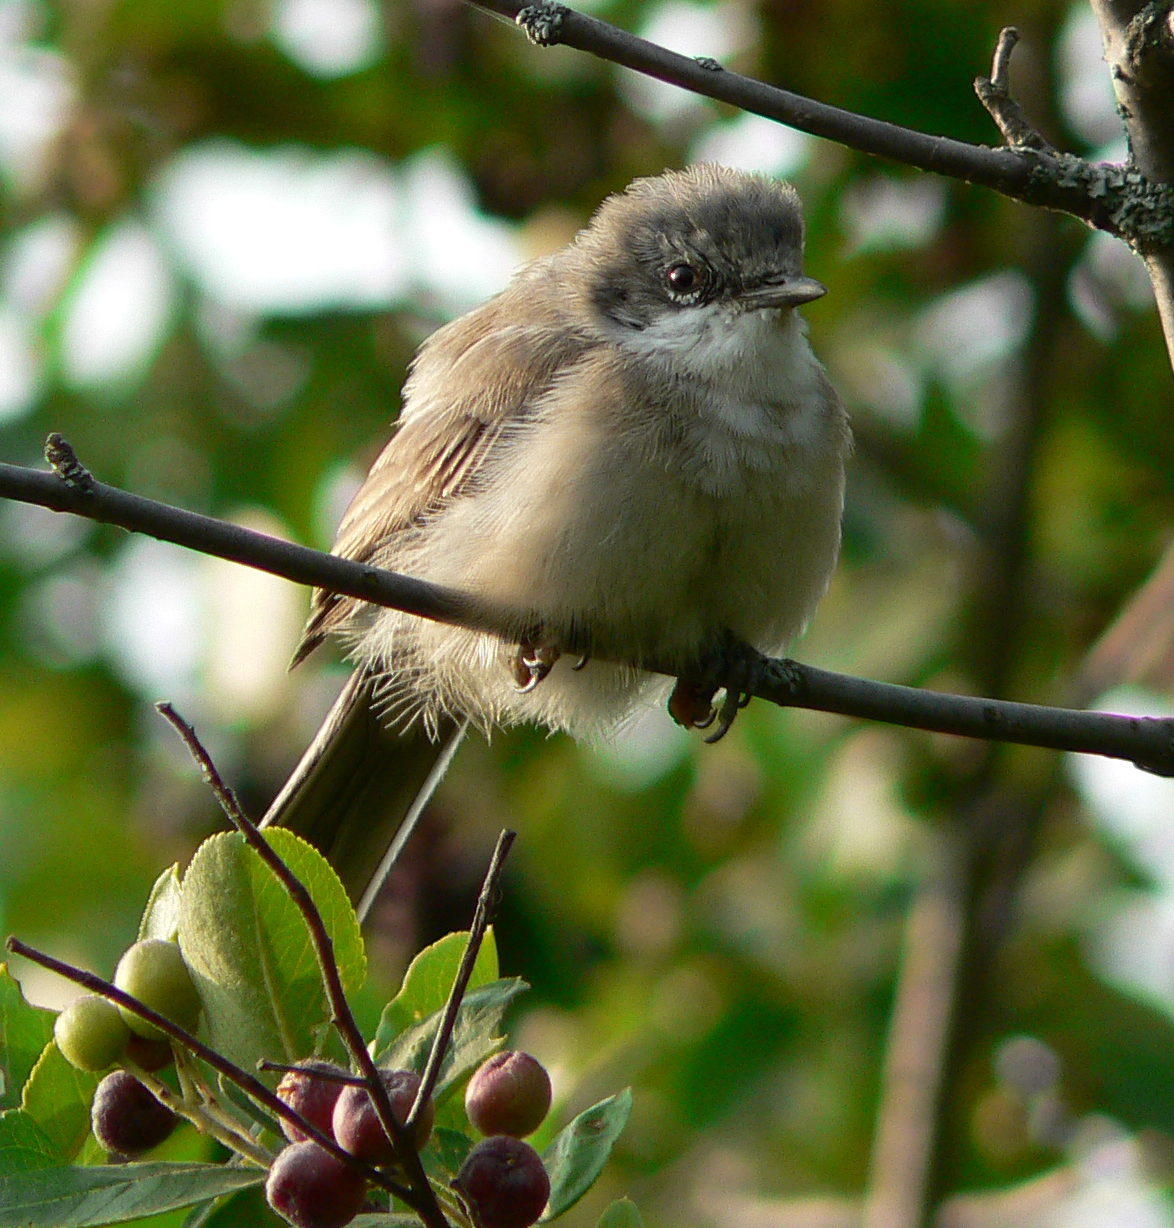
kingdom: Animalia
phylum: Chordata
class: Aves
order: Passeriformes
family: Sylviidae
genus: Sylvia
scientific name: Sylvia curruca
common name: Lesser whitethroat
